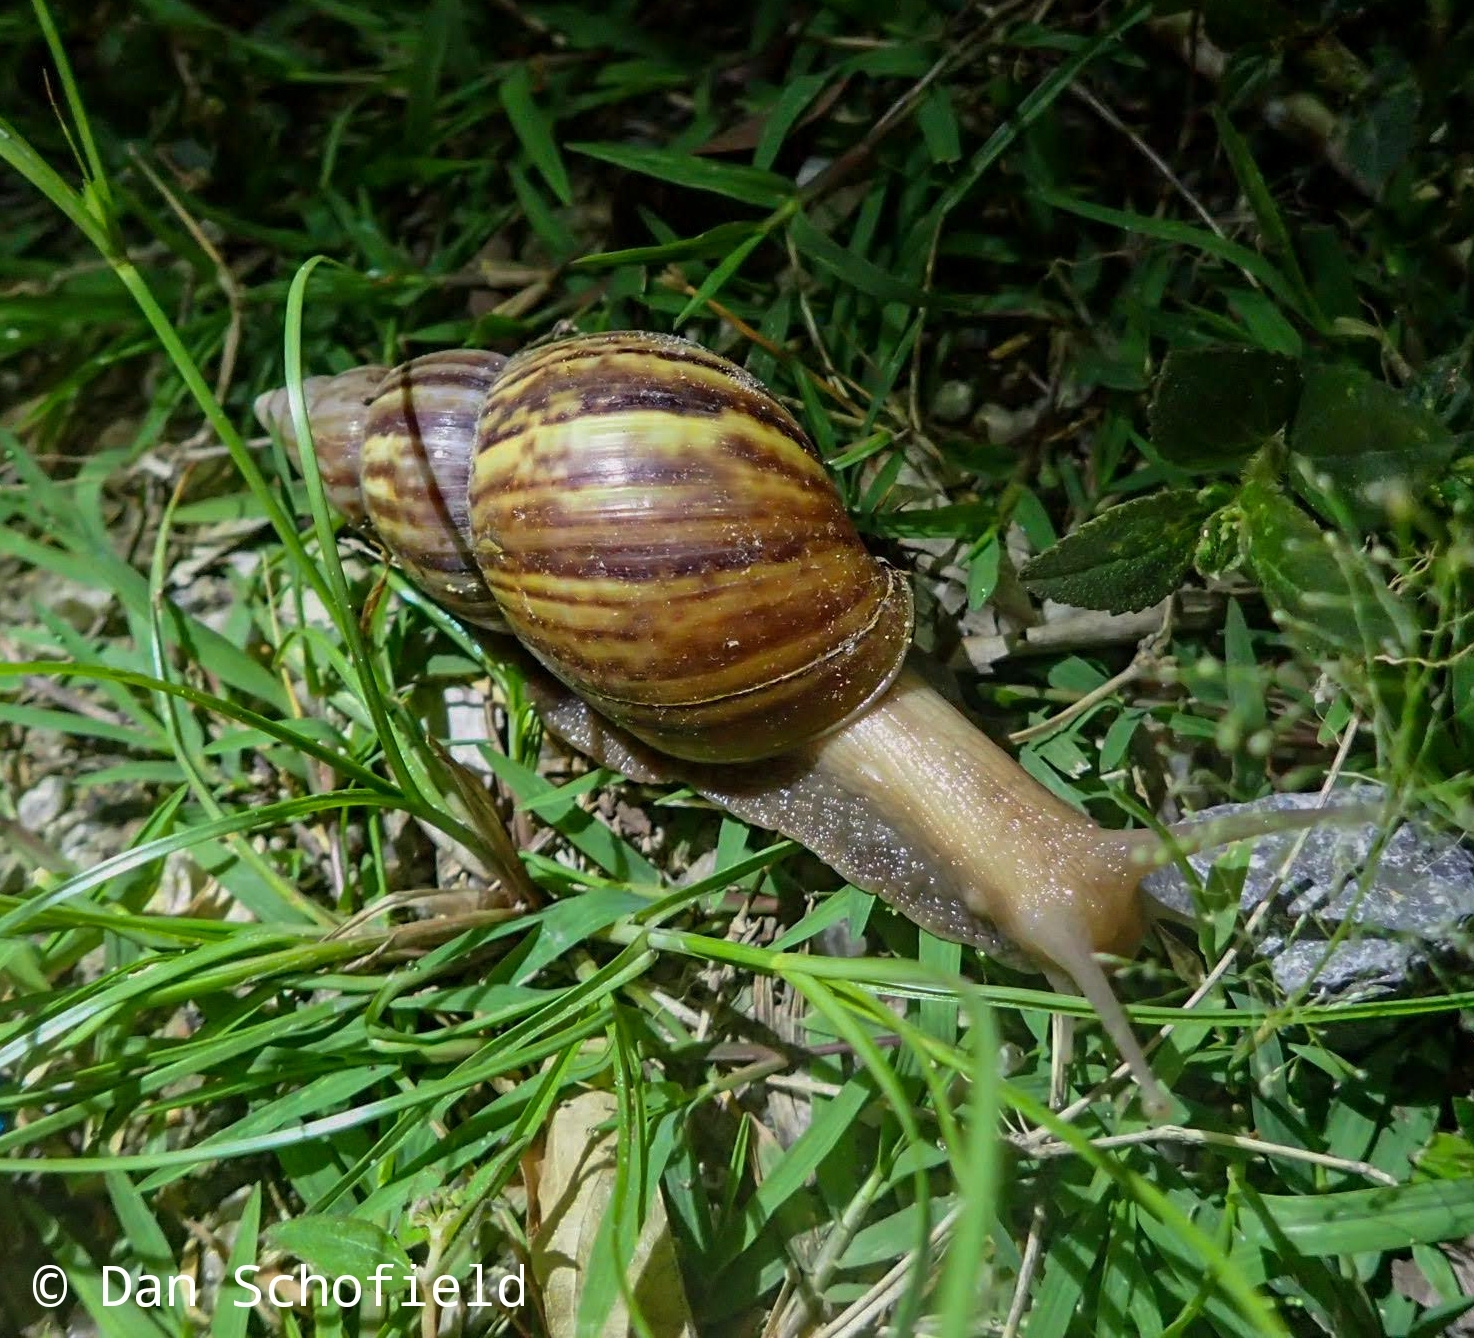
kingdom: Animalia
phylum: Mollusca
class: Gastropoda
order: Stylommatophora
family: Achatinidae
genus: Lissachatina
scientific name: Lissachatina fulica
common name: Giant african snail
